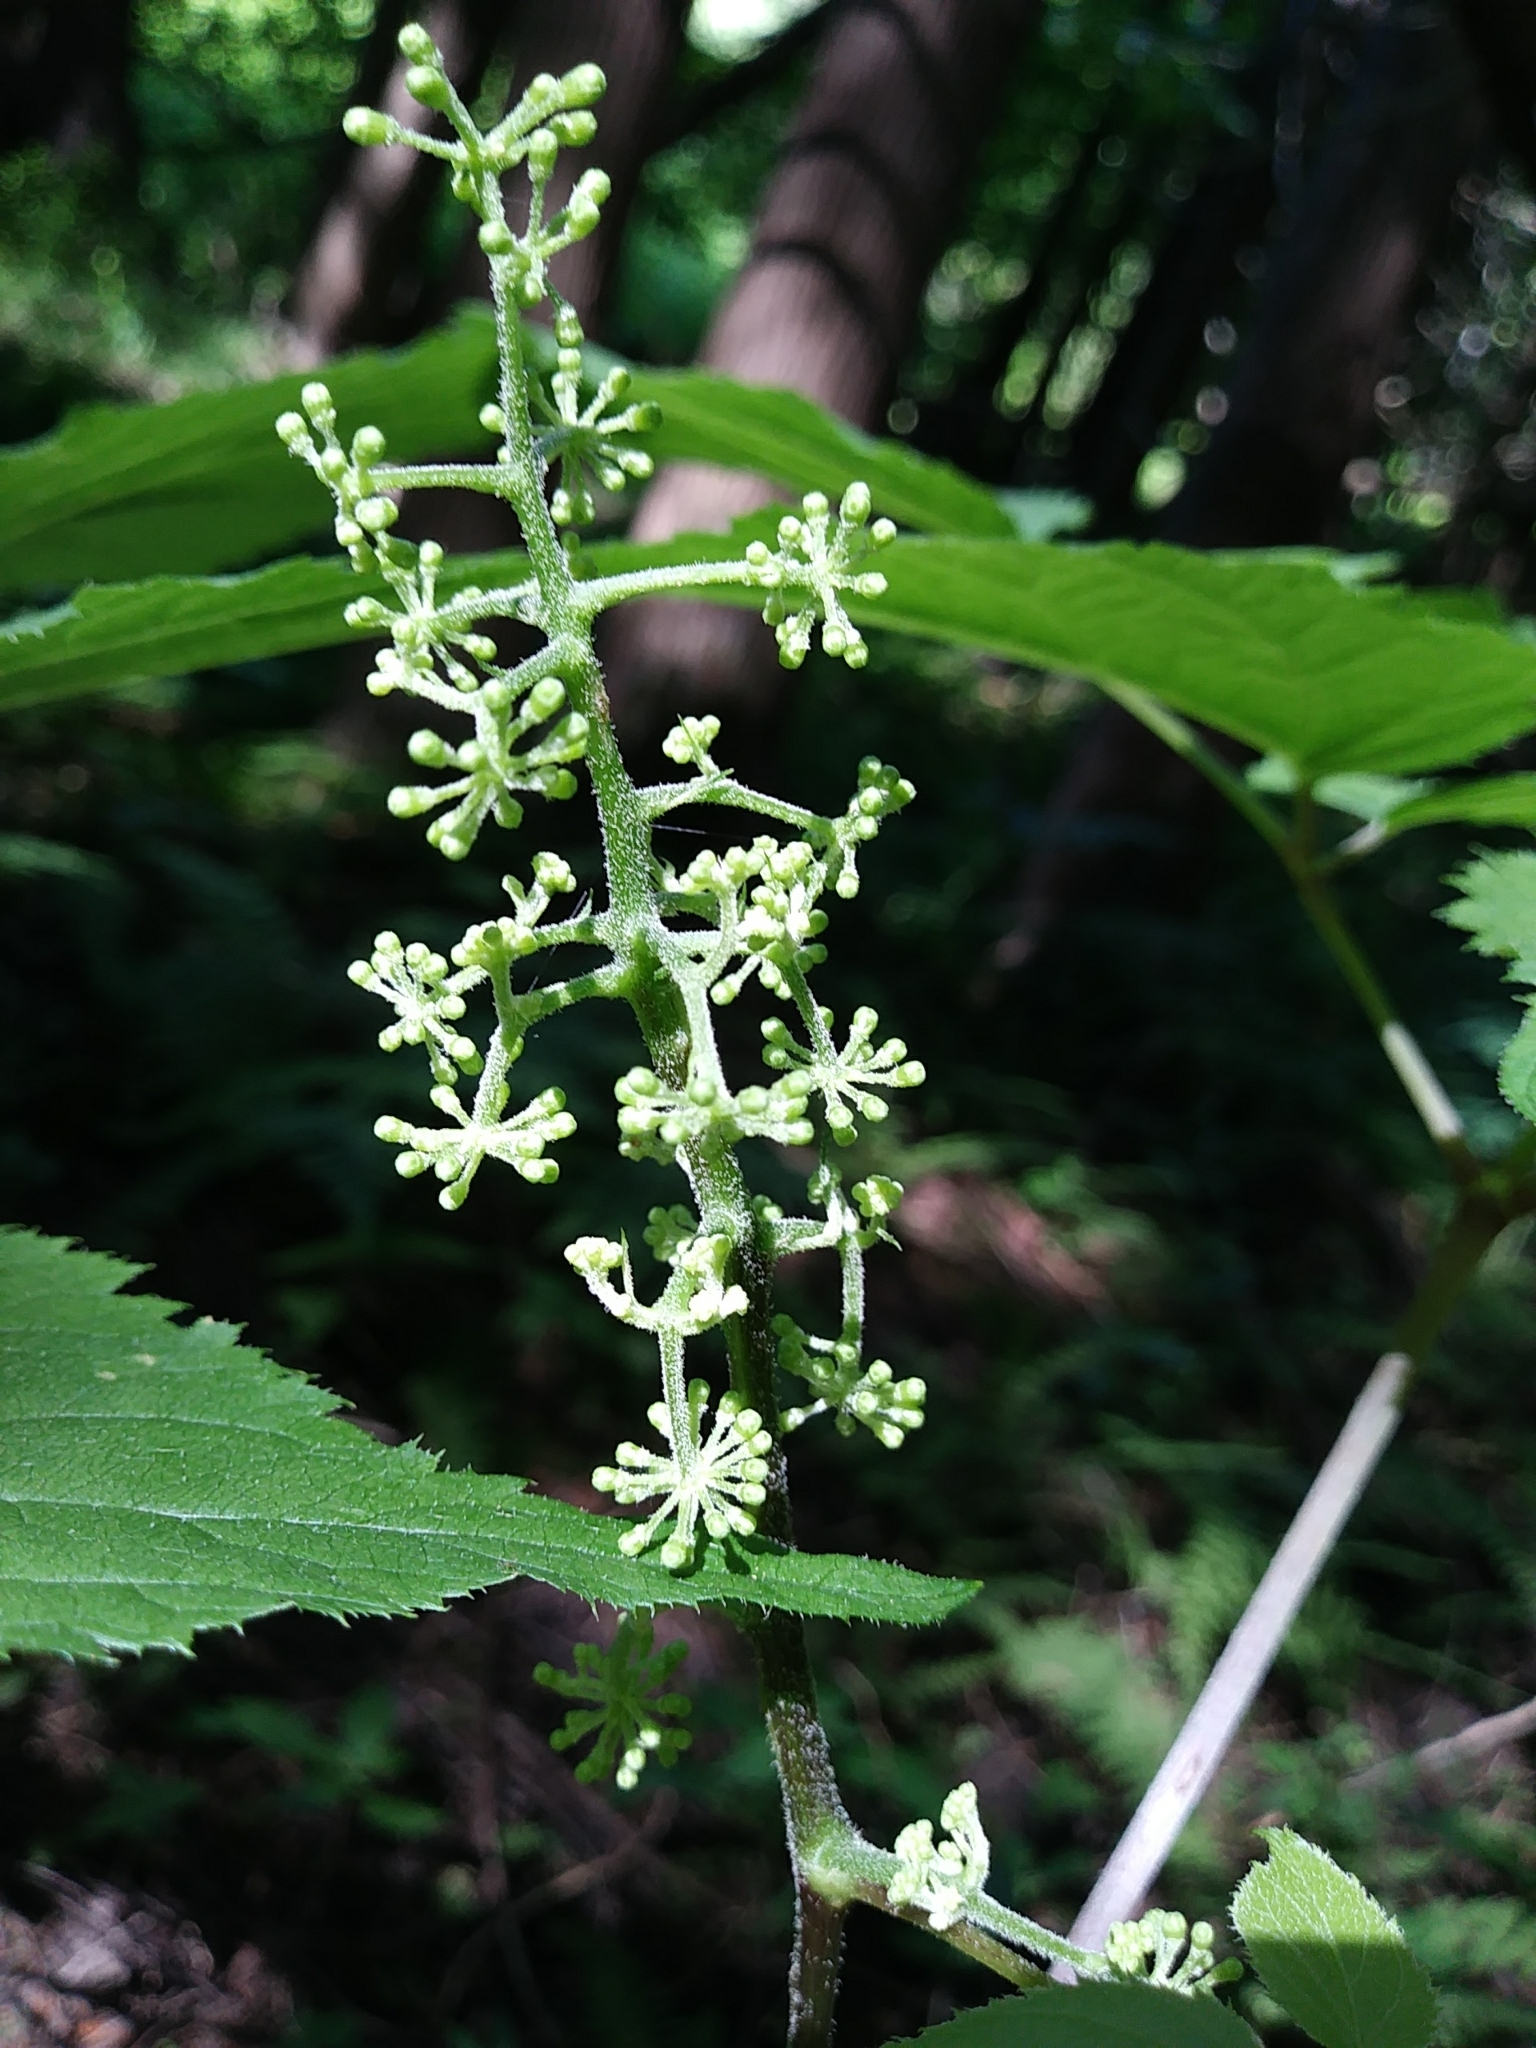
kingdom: Plantae
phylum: Tracheophyta
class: Magnoliopsida
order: Apiales
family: Araliaceae
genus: Aralia
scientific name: Aralia racemosa
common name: American-spikenard
